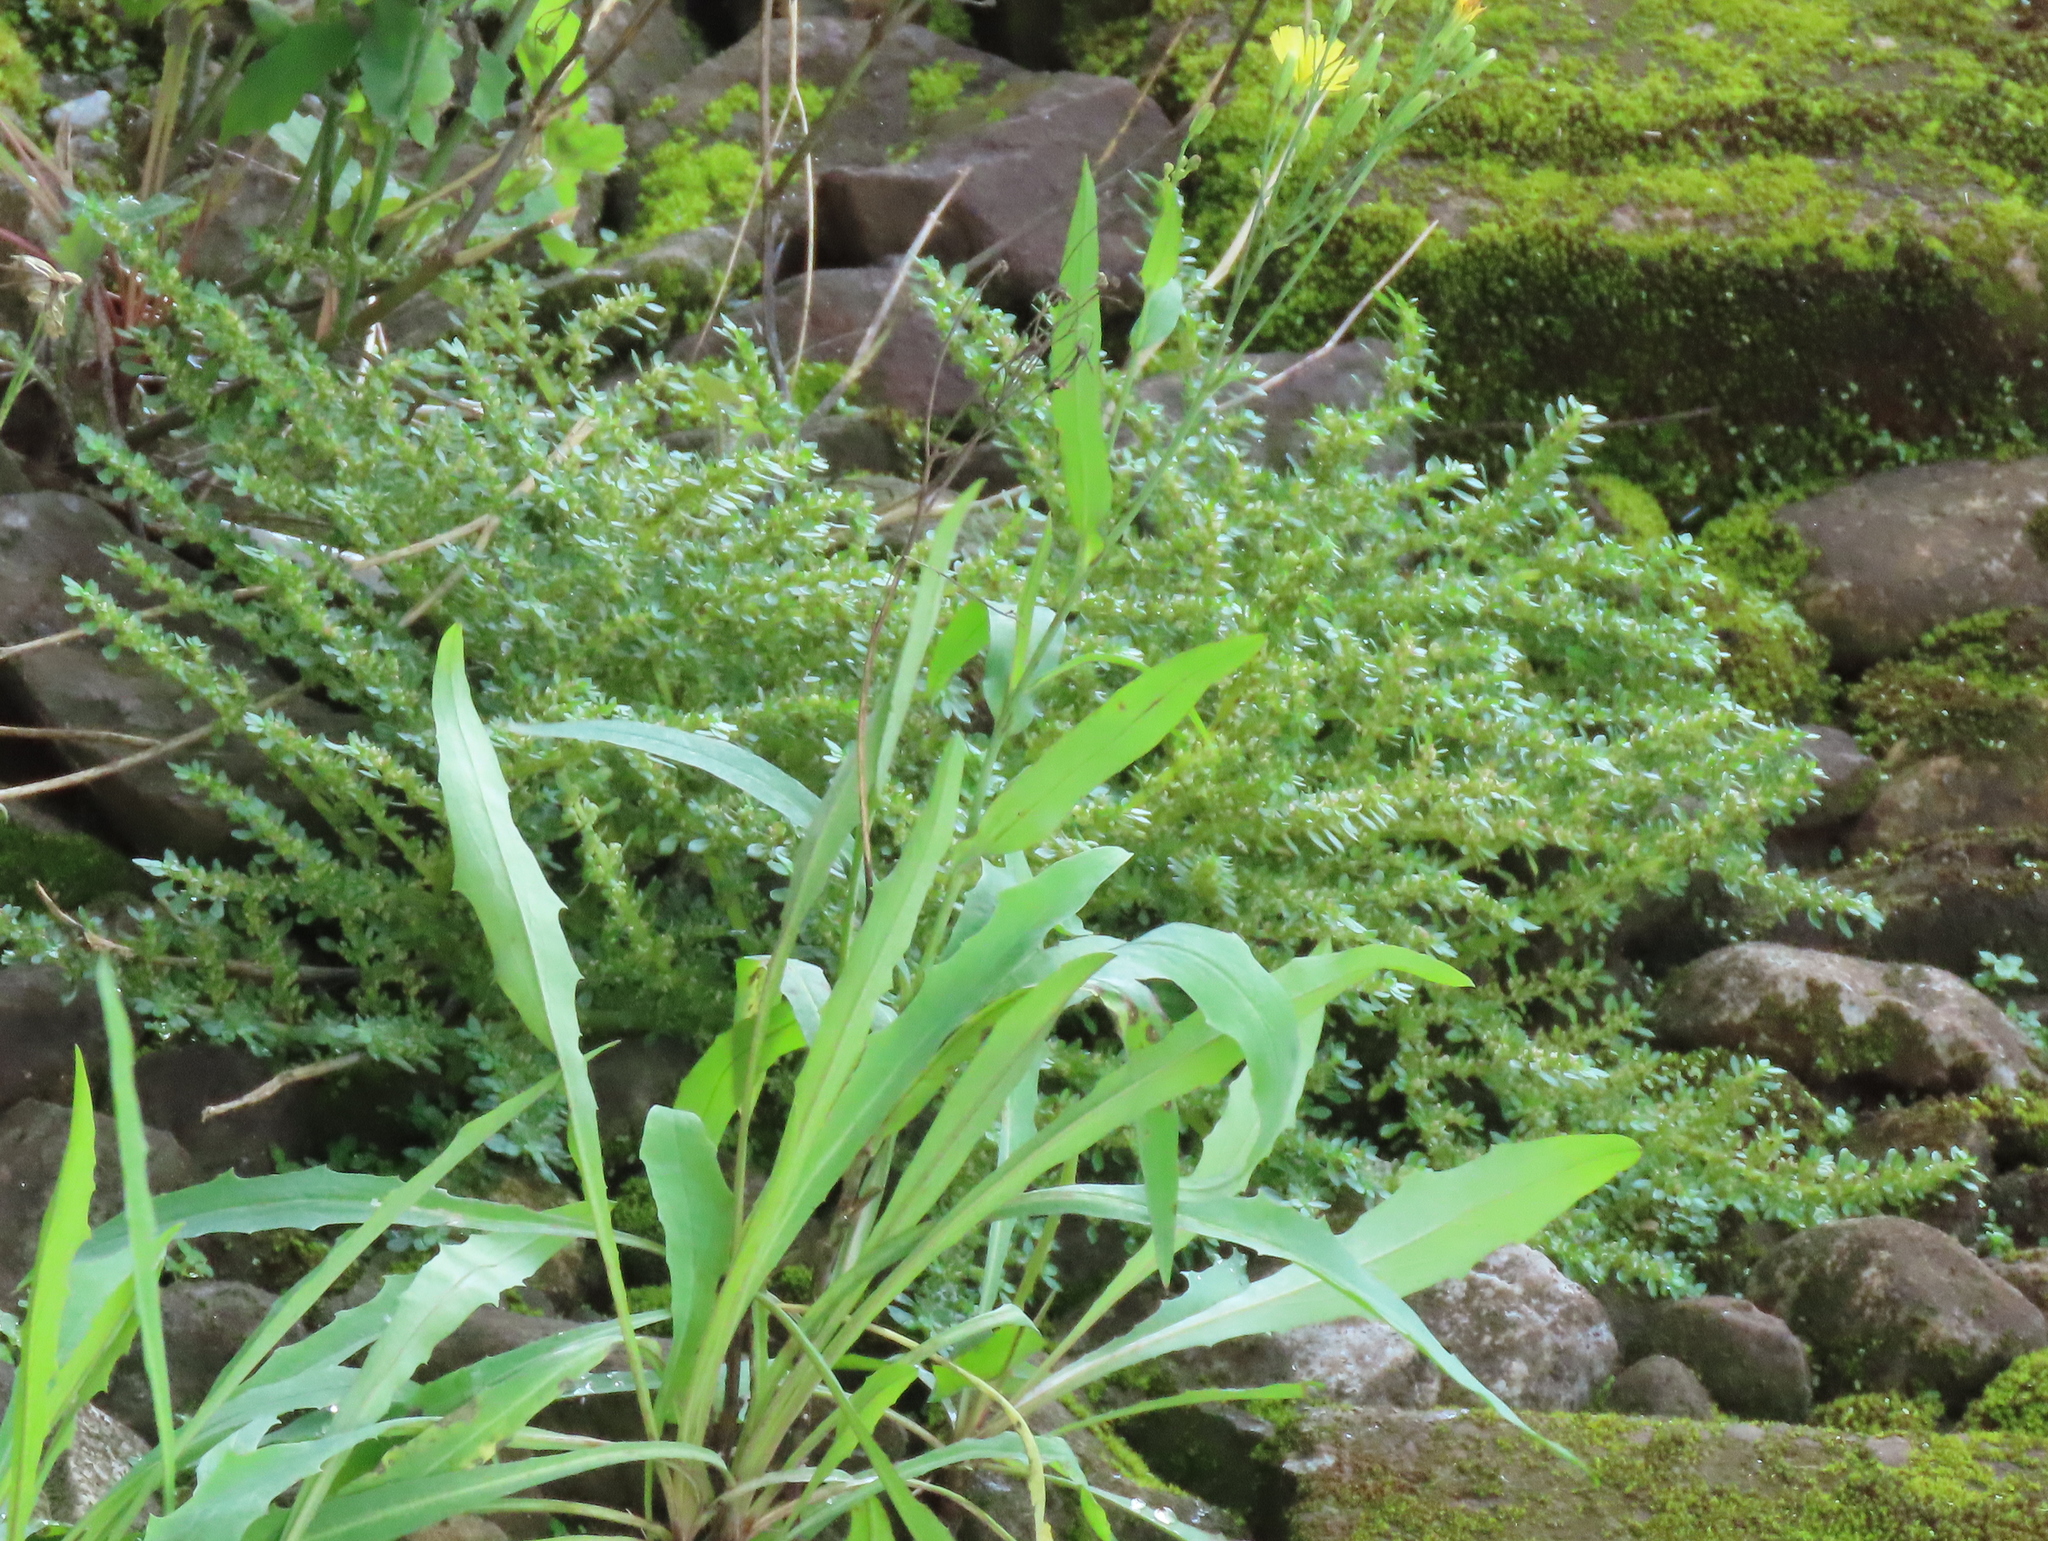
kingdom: Plantae
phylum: Tracheophyta
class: Magnoliopsida
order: Rosales
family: Urticaceae
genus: Pilea
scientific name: Pilea microphylla
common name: Artillery-plant
